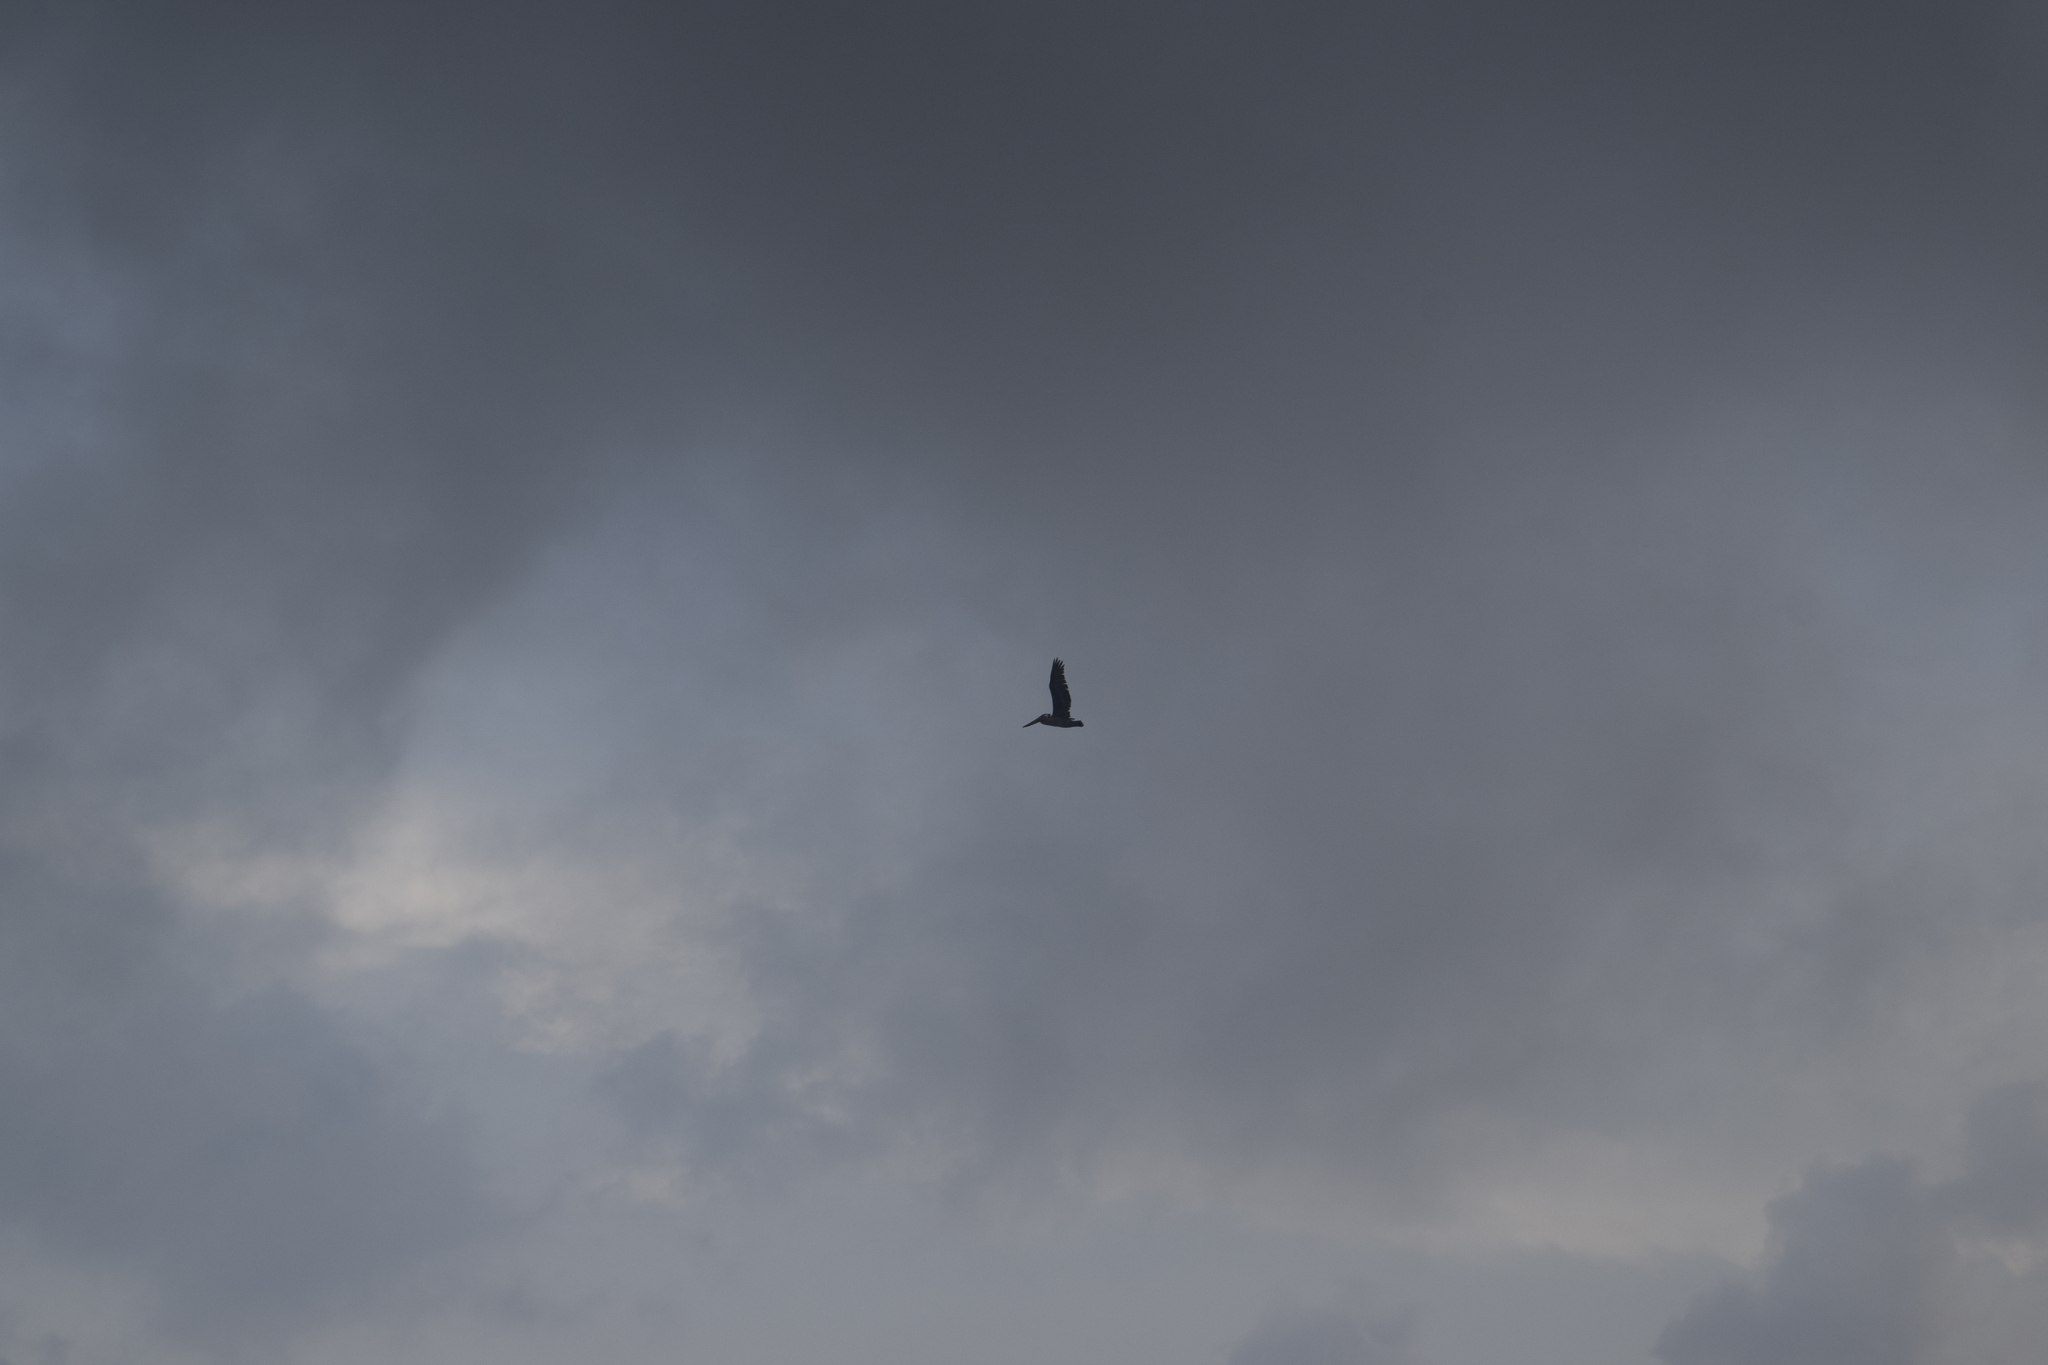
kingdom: Animalia
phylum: Chordata
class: Aves
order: Pelecaniformes
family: Pelecanidae
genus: Pelecanus
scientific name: Pelecanus occidentalis
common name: Brown pelican
